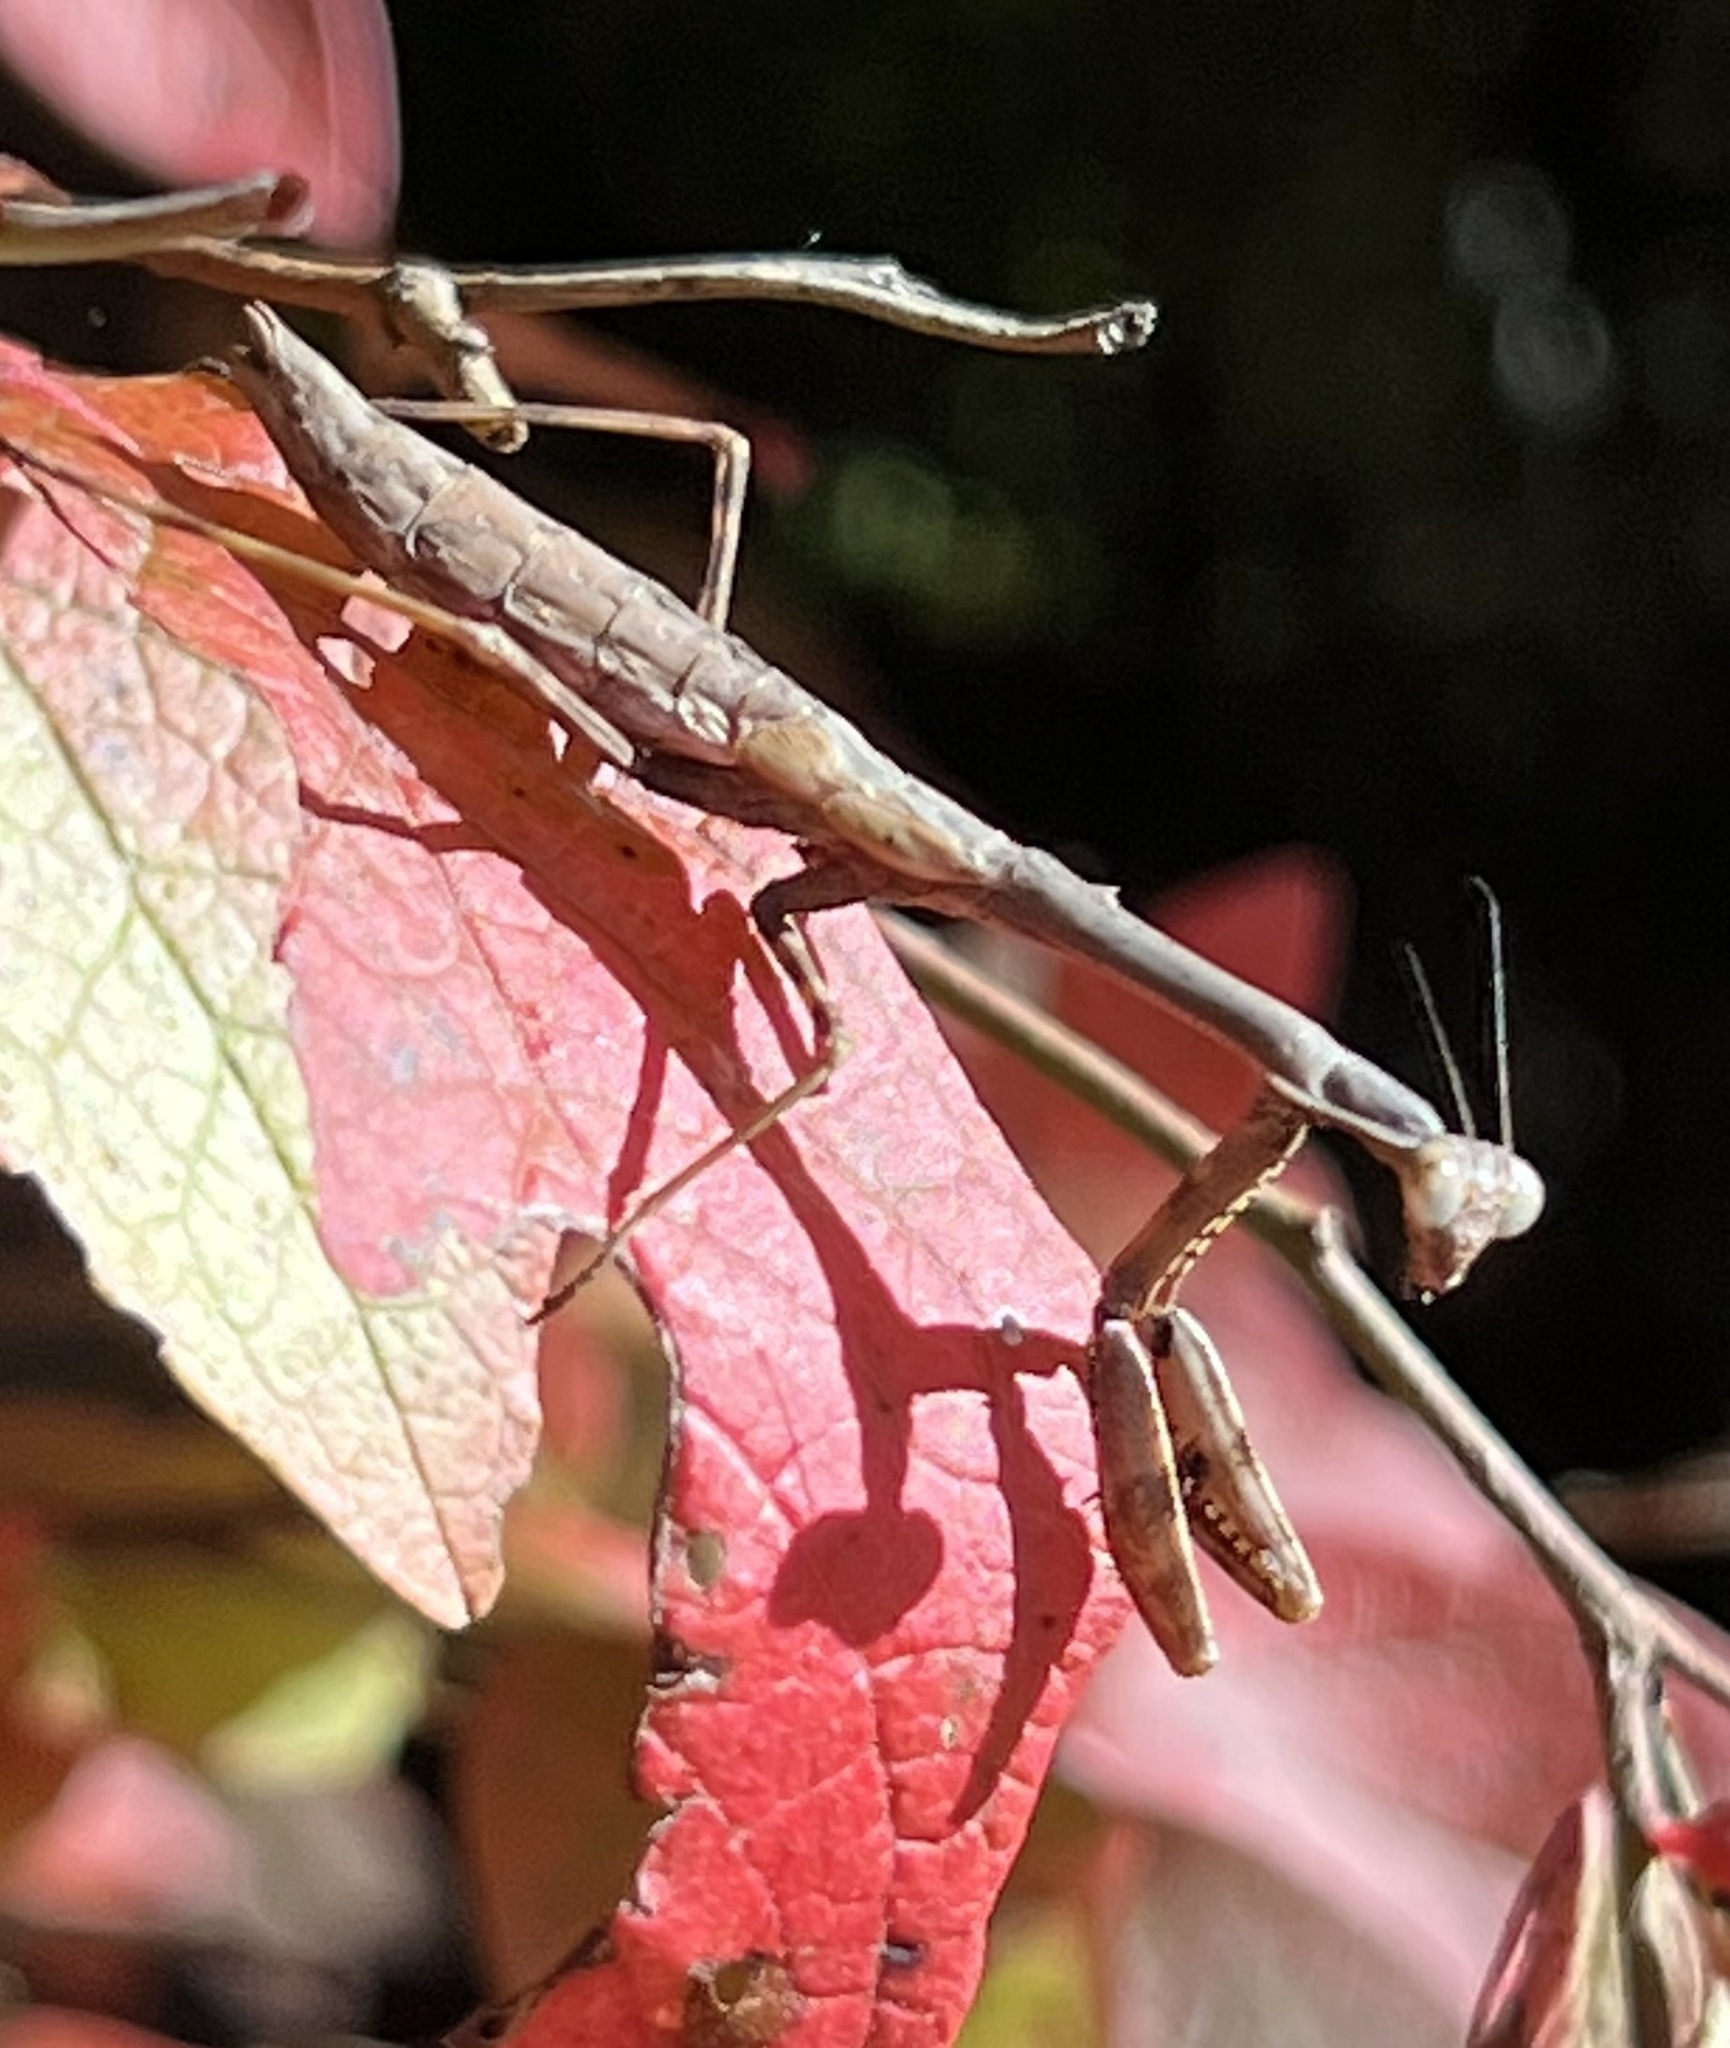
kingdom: Animalia
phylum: Arthropoda
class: Insecta
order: Mantodea
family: Mantidae
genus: Stagmomantis
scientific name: Stagmomantis carolina
